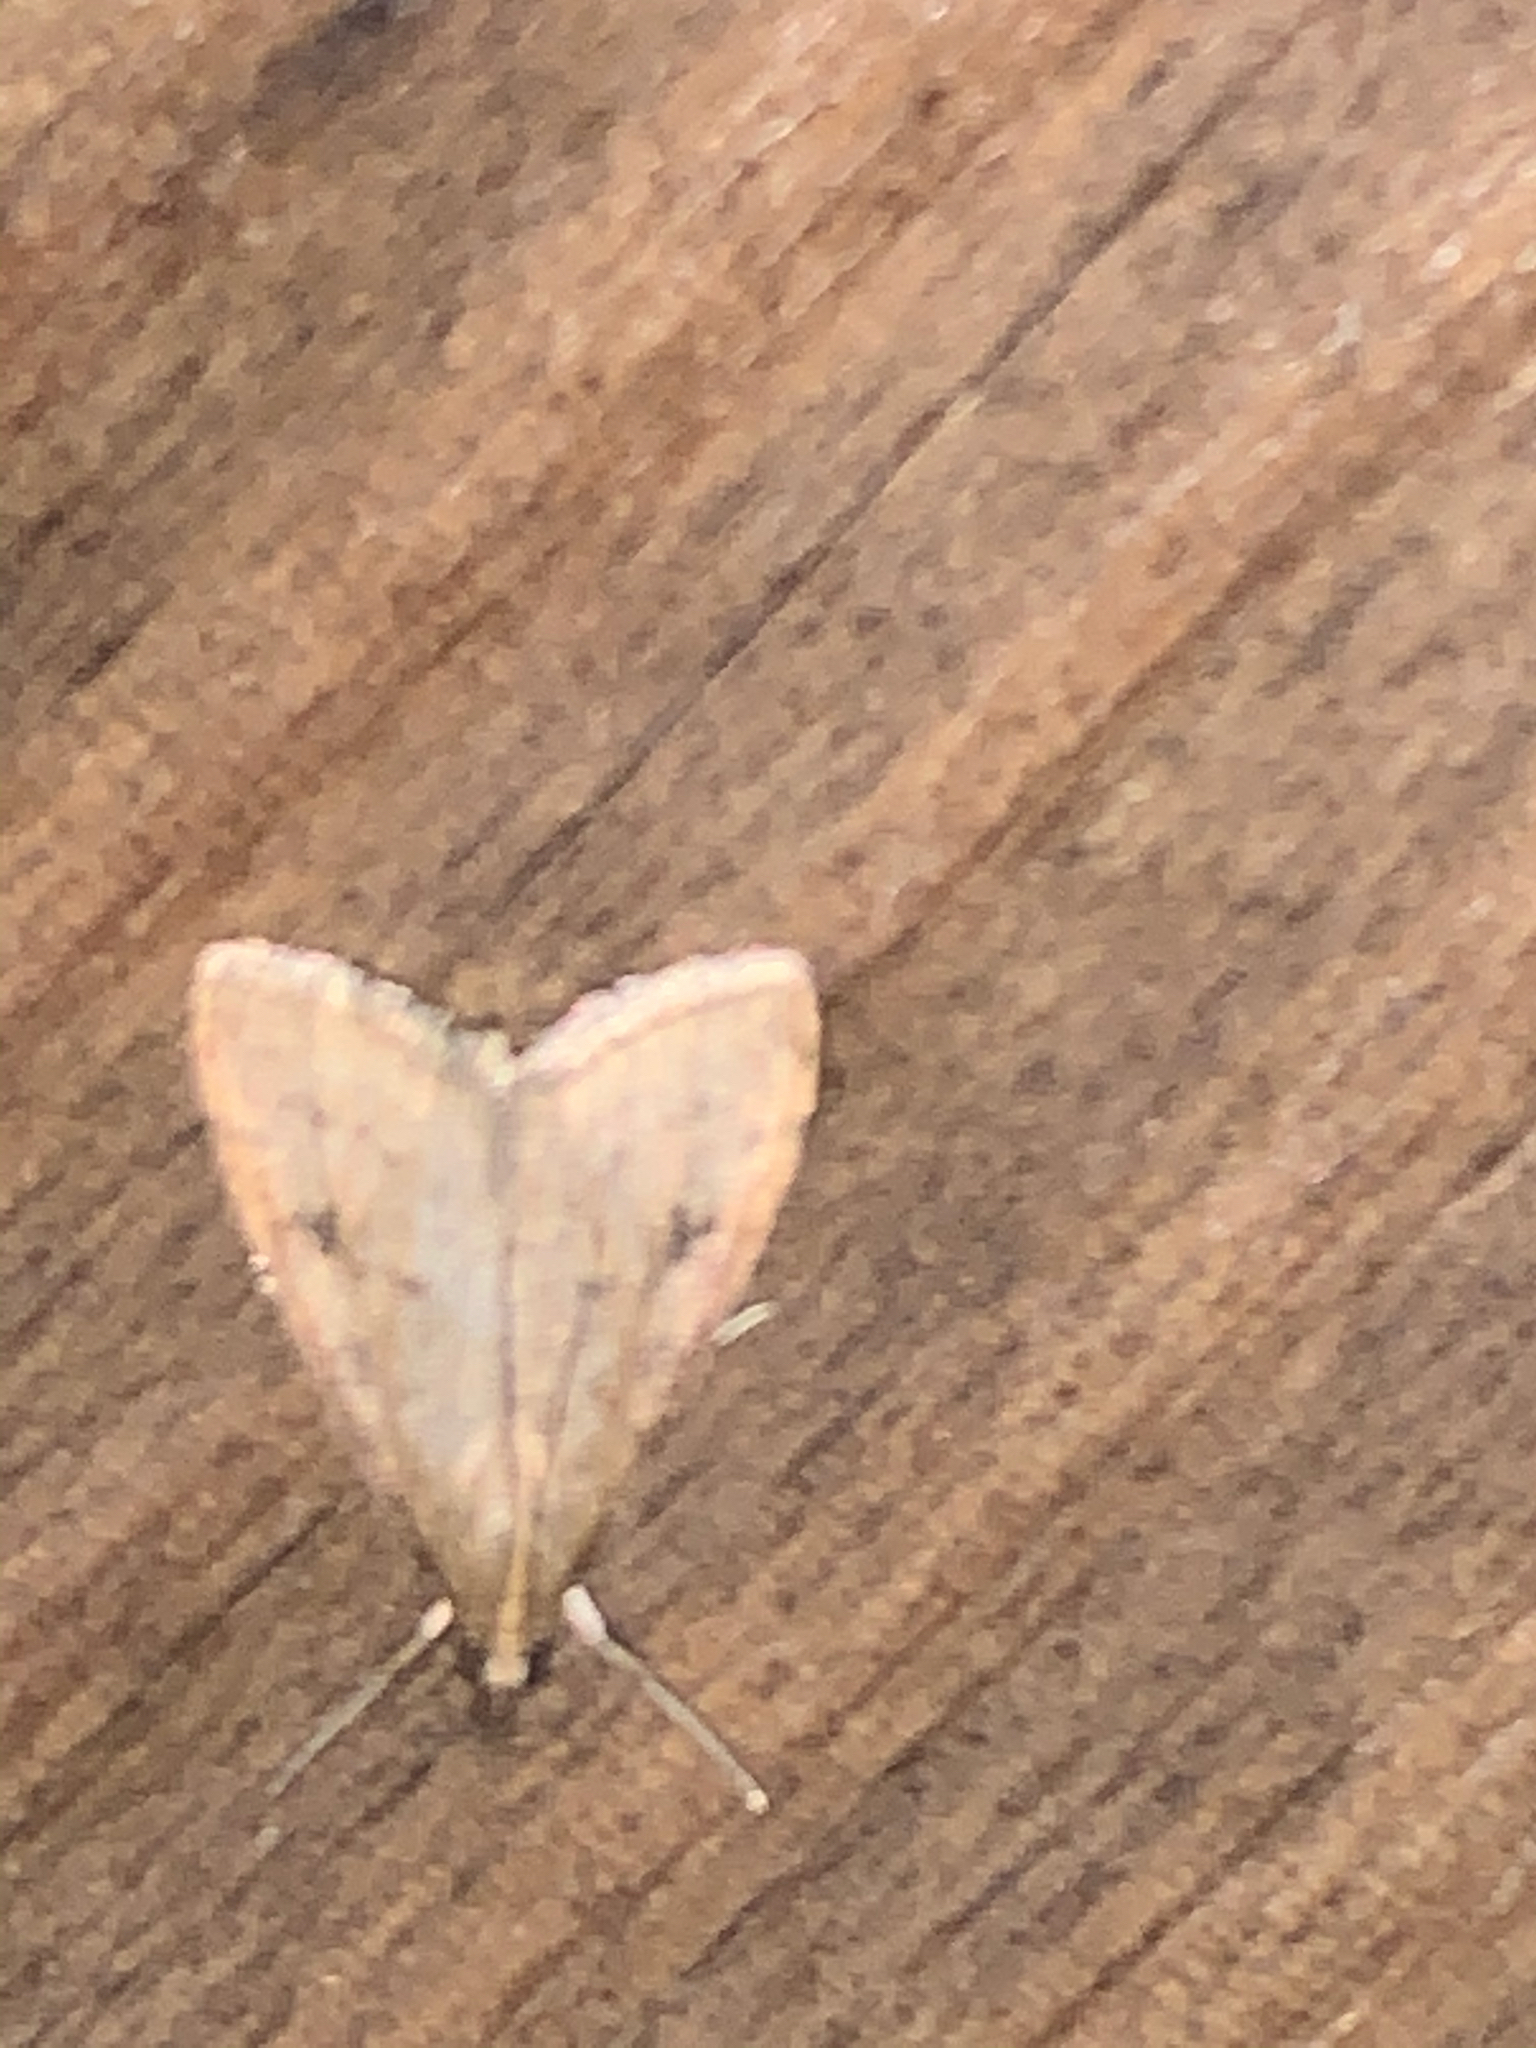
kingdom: Animalia
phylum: Arthropoda
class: Insecta
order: Lepidoptera
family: Crambidae
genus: Udea
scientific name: Udea rubigalis
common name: Celery leaftier moth
